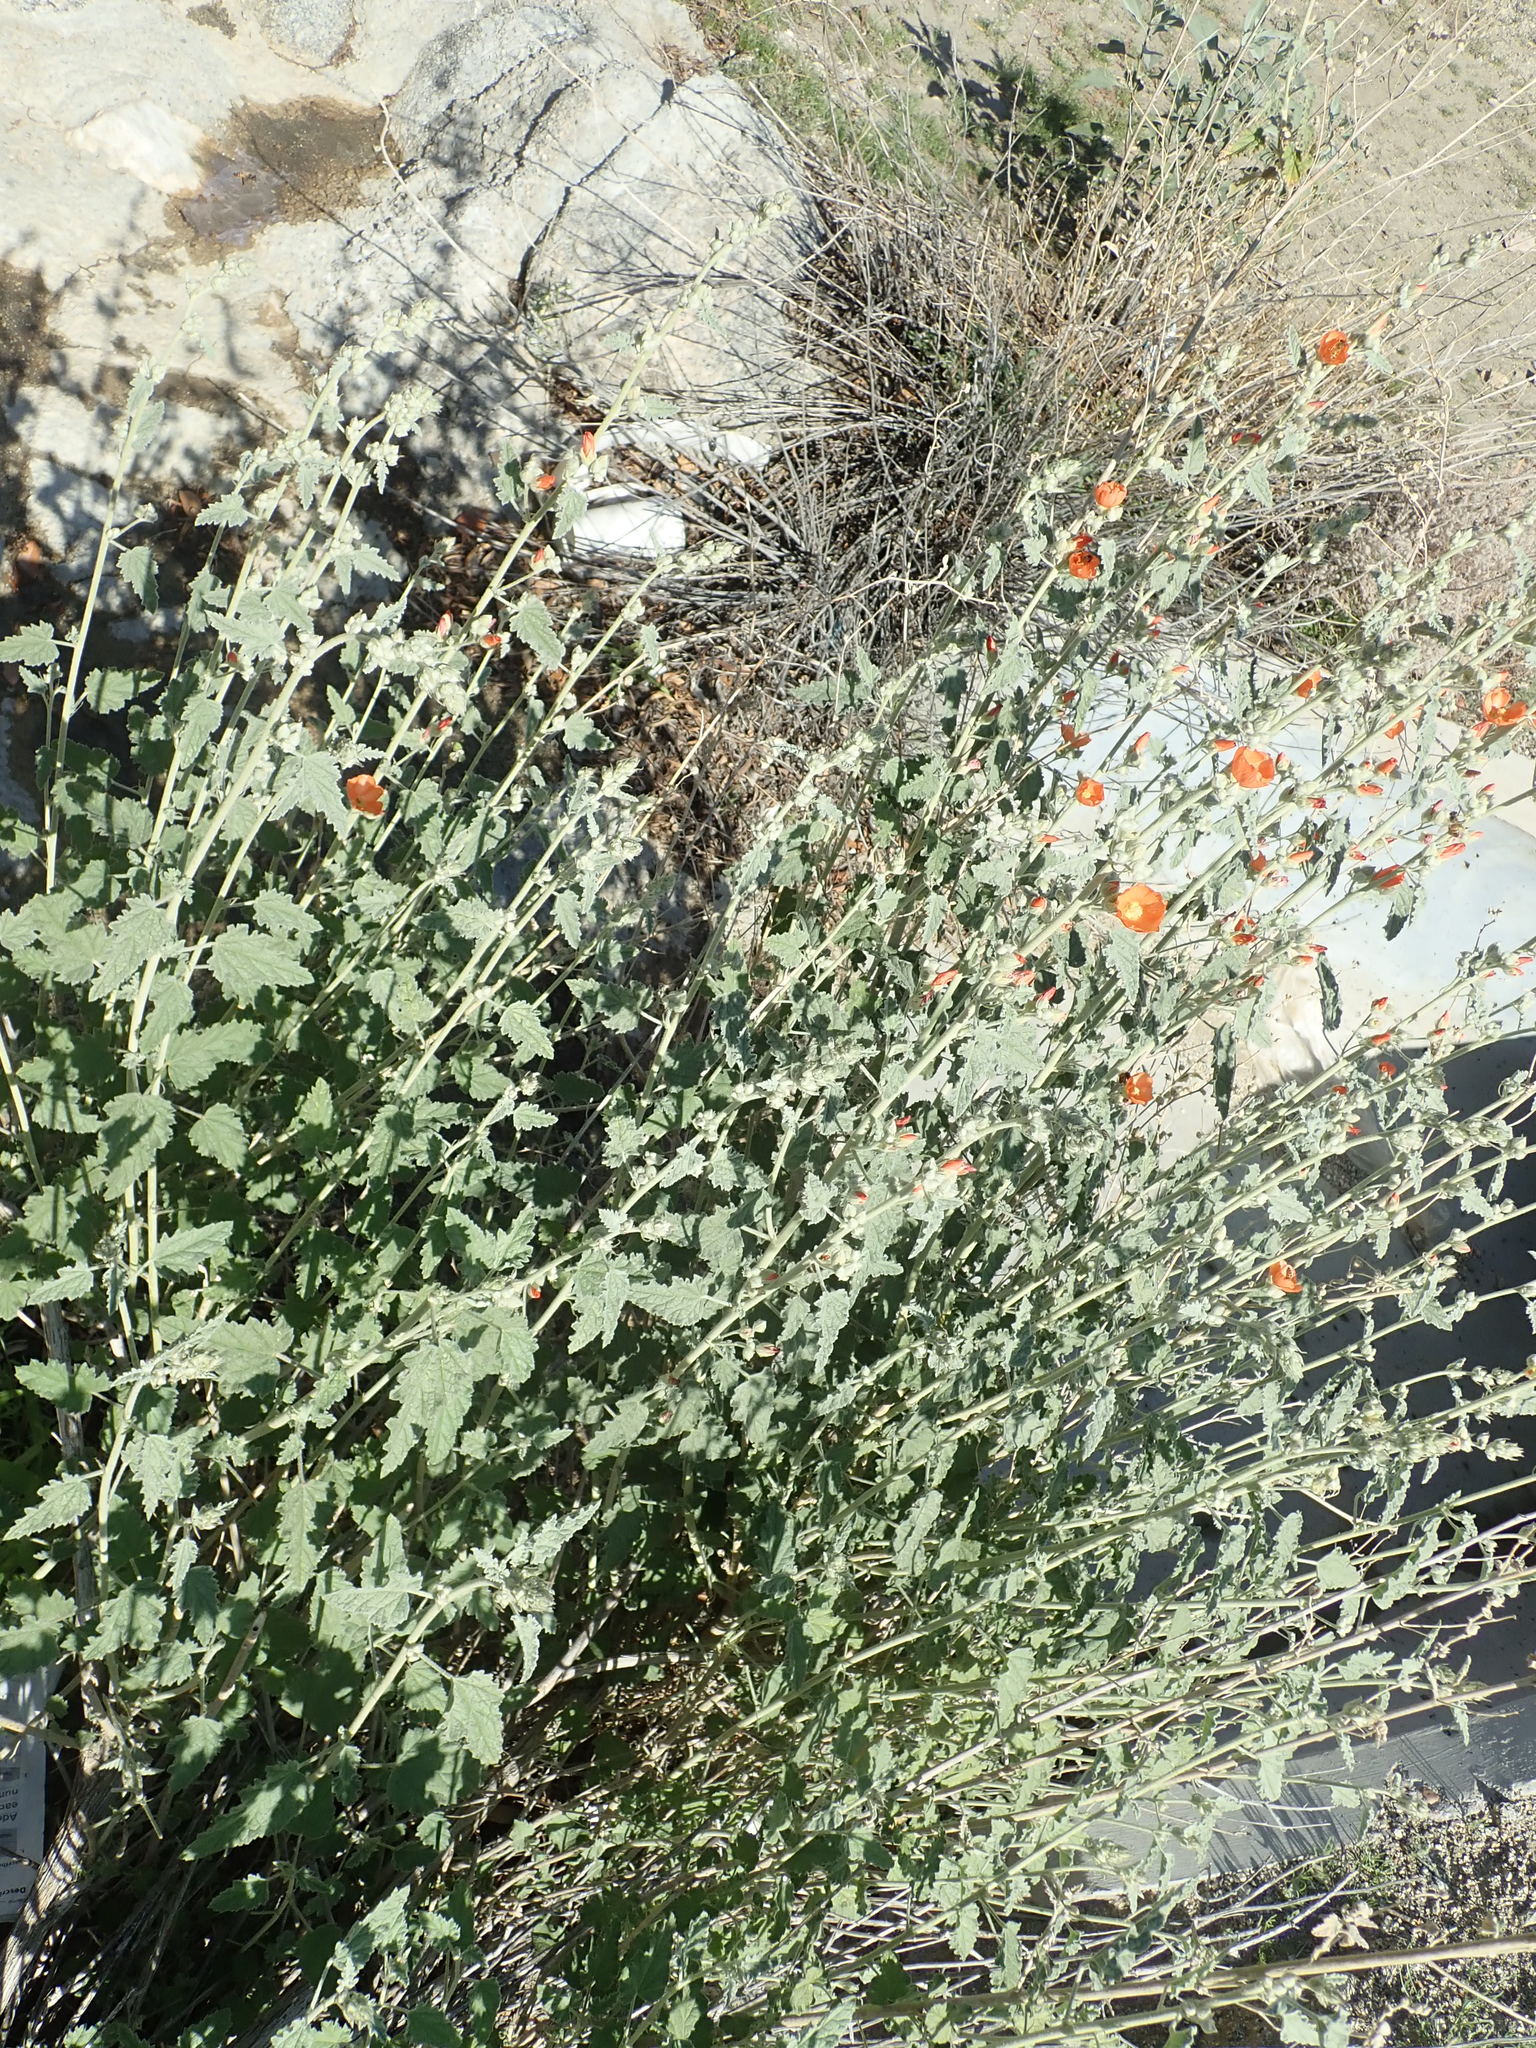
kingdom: Plantae
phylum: Tracheophyta
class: Magnoliopsida
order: Malvales
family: Malvaceae
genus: Sphaeralcea
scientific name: Sphaeralcea ambigua
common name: Apricot globe-mallow
